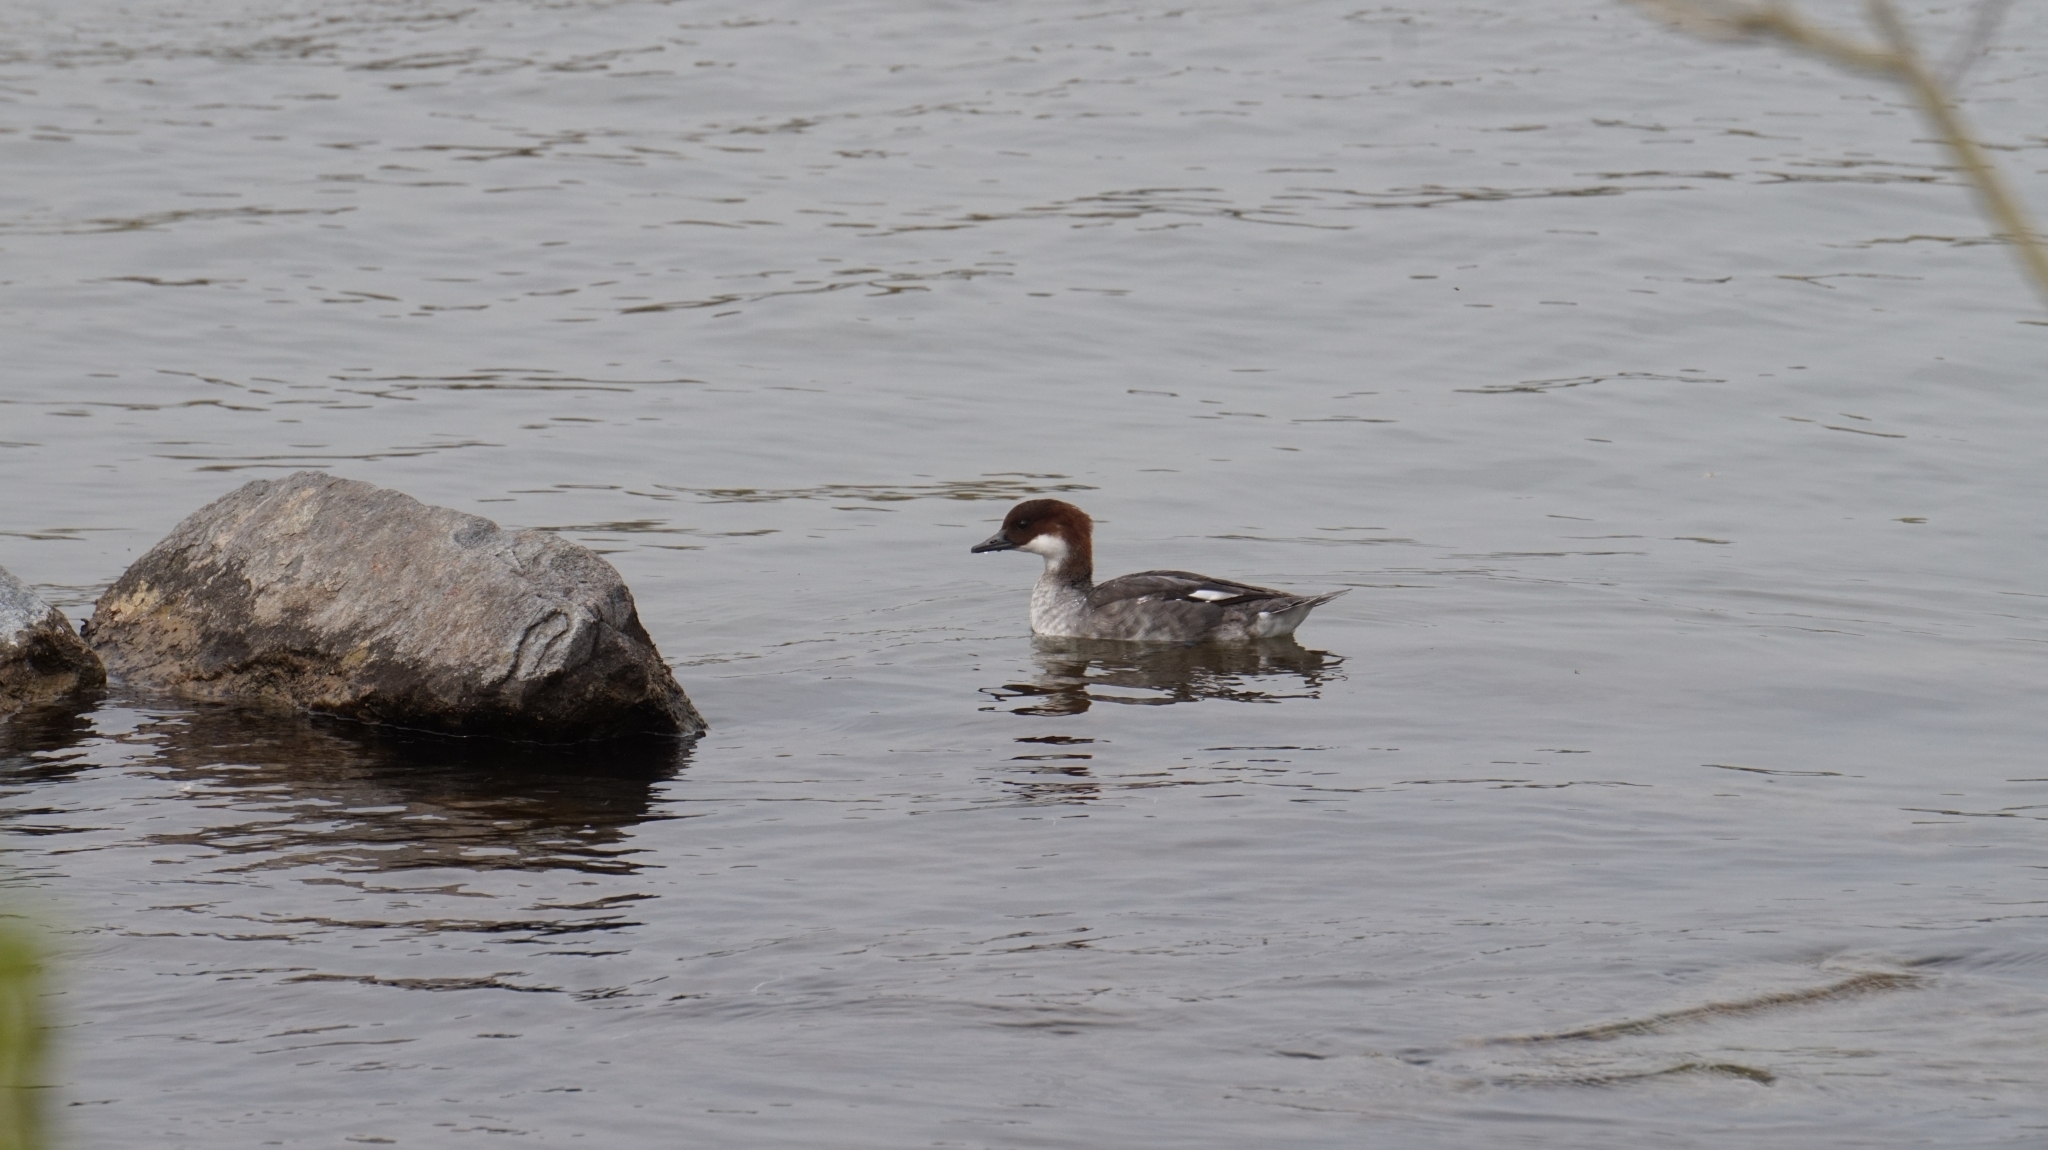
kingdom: Animalia
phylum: Chordata
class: Aves
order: Anseriformes
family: Anatidae
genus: Mergellus
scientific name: Mergellus albellus
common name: Smew
